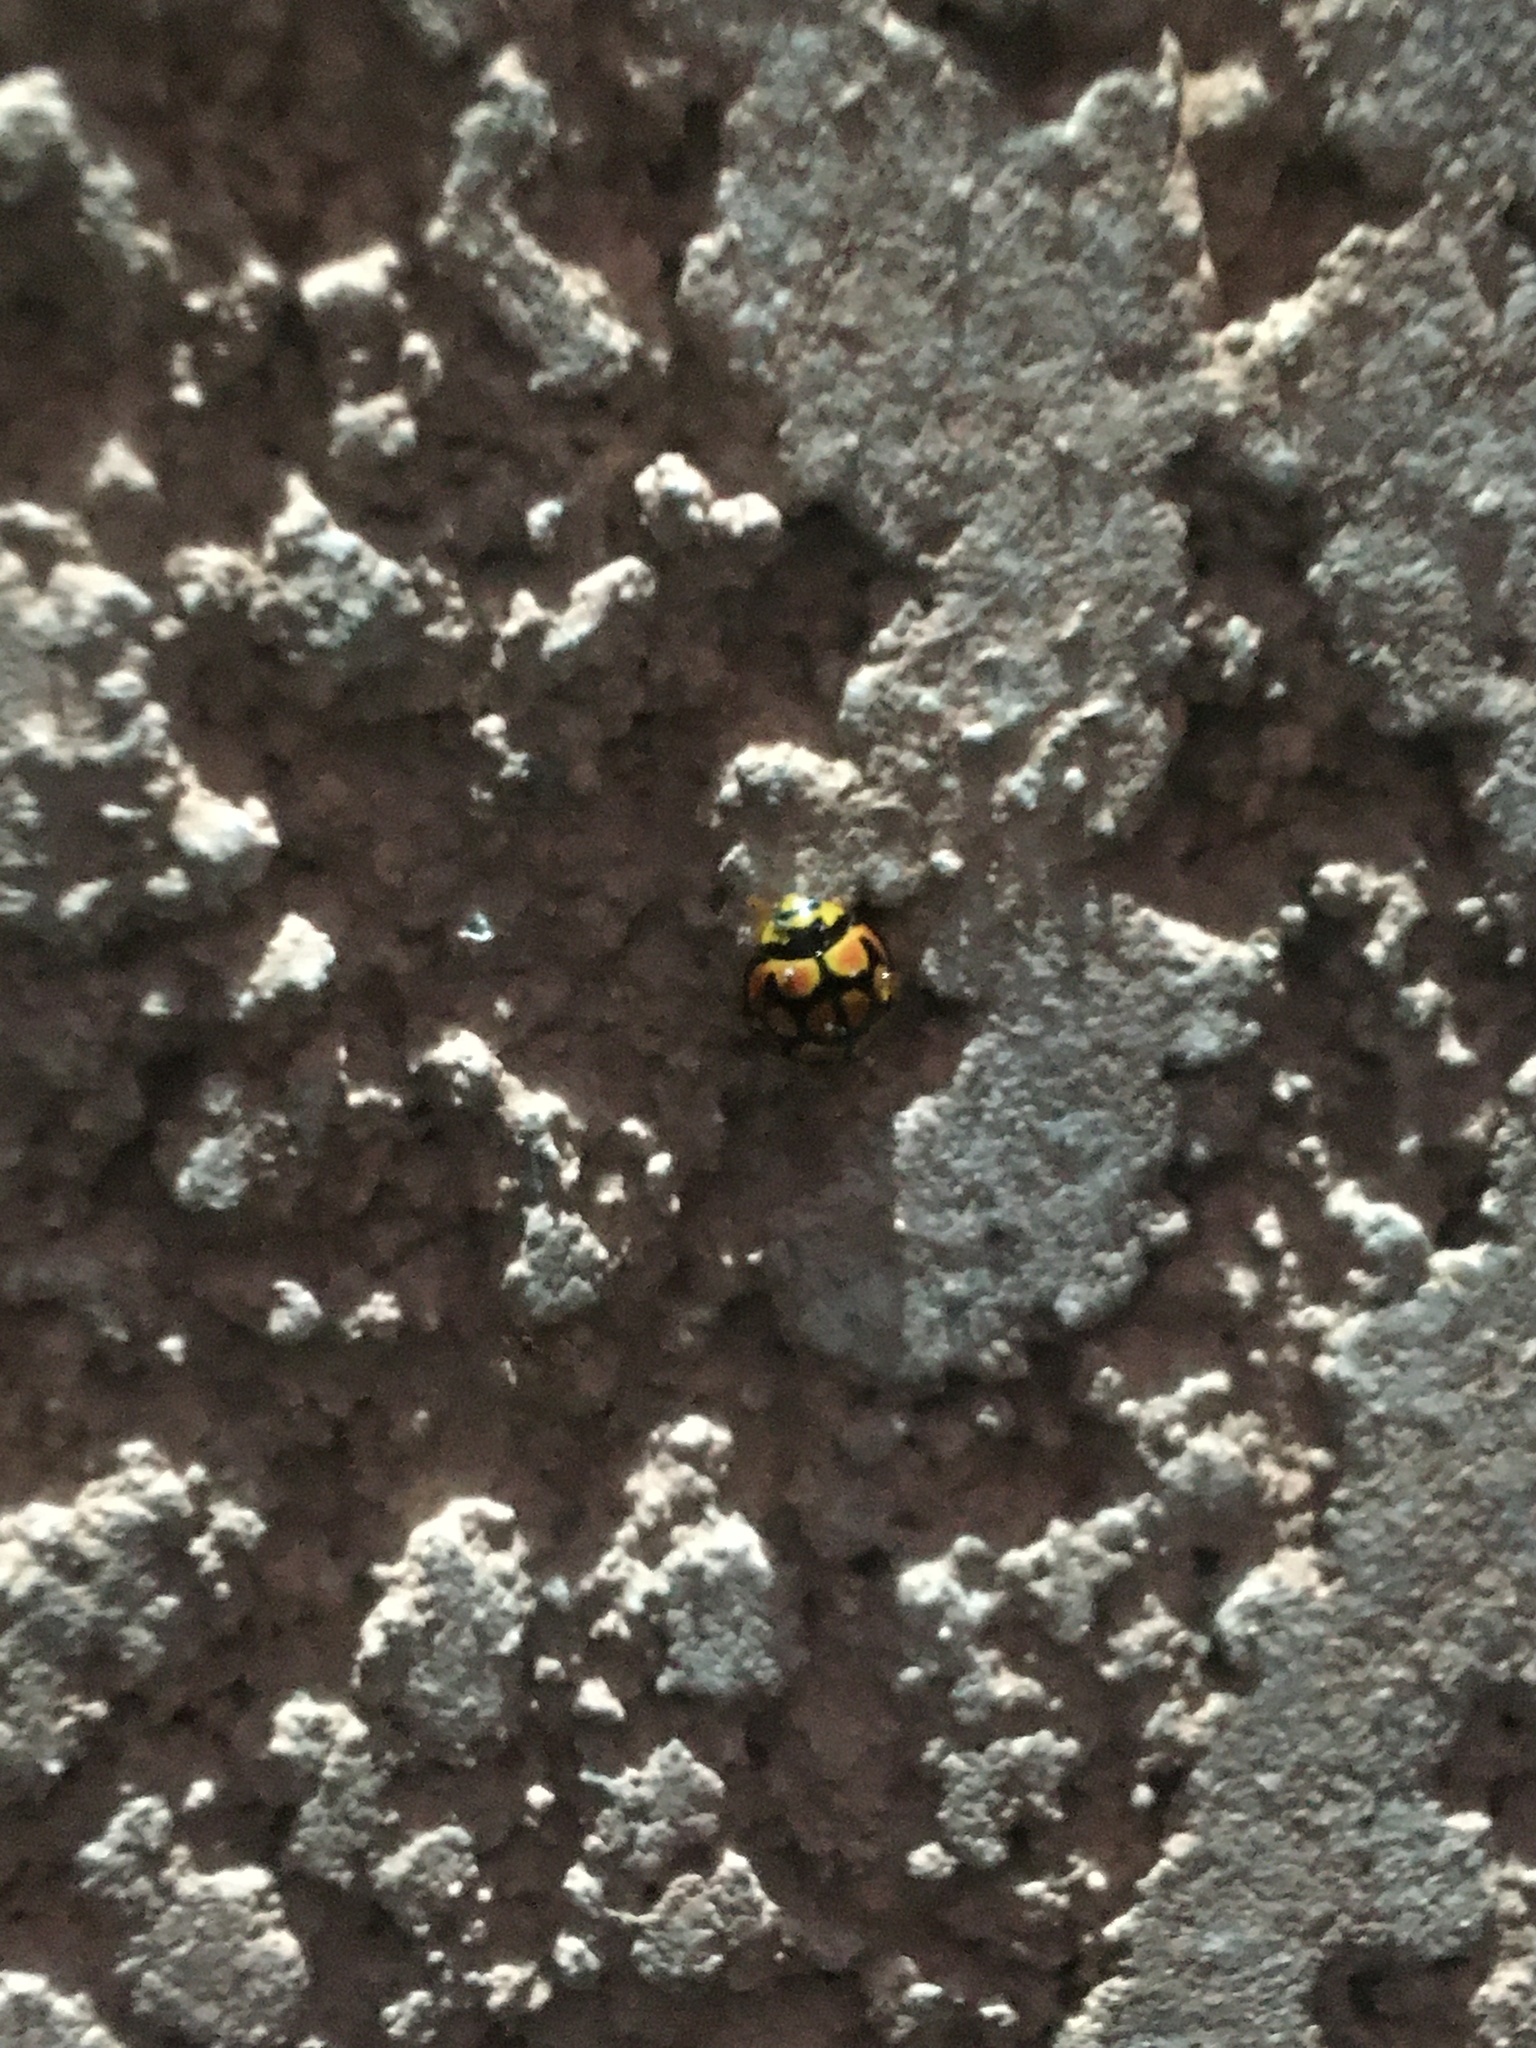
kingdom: Animalia
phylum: Arthropoda
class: Insecta
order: Coleoptera
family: Coccinellidae
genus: Cheilomenes
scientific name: Cheilomenes lunata
